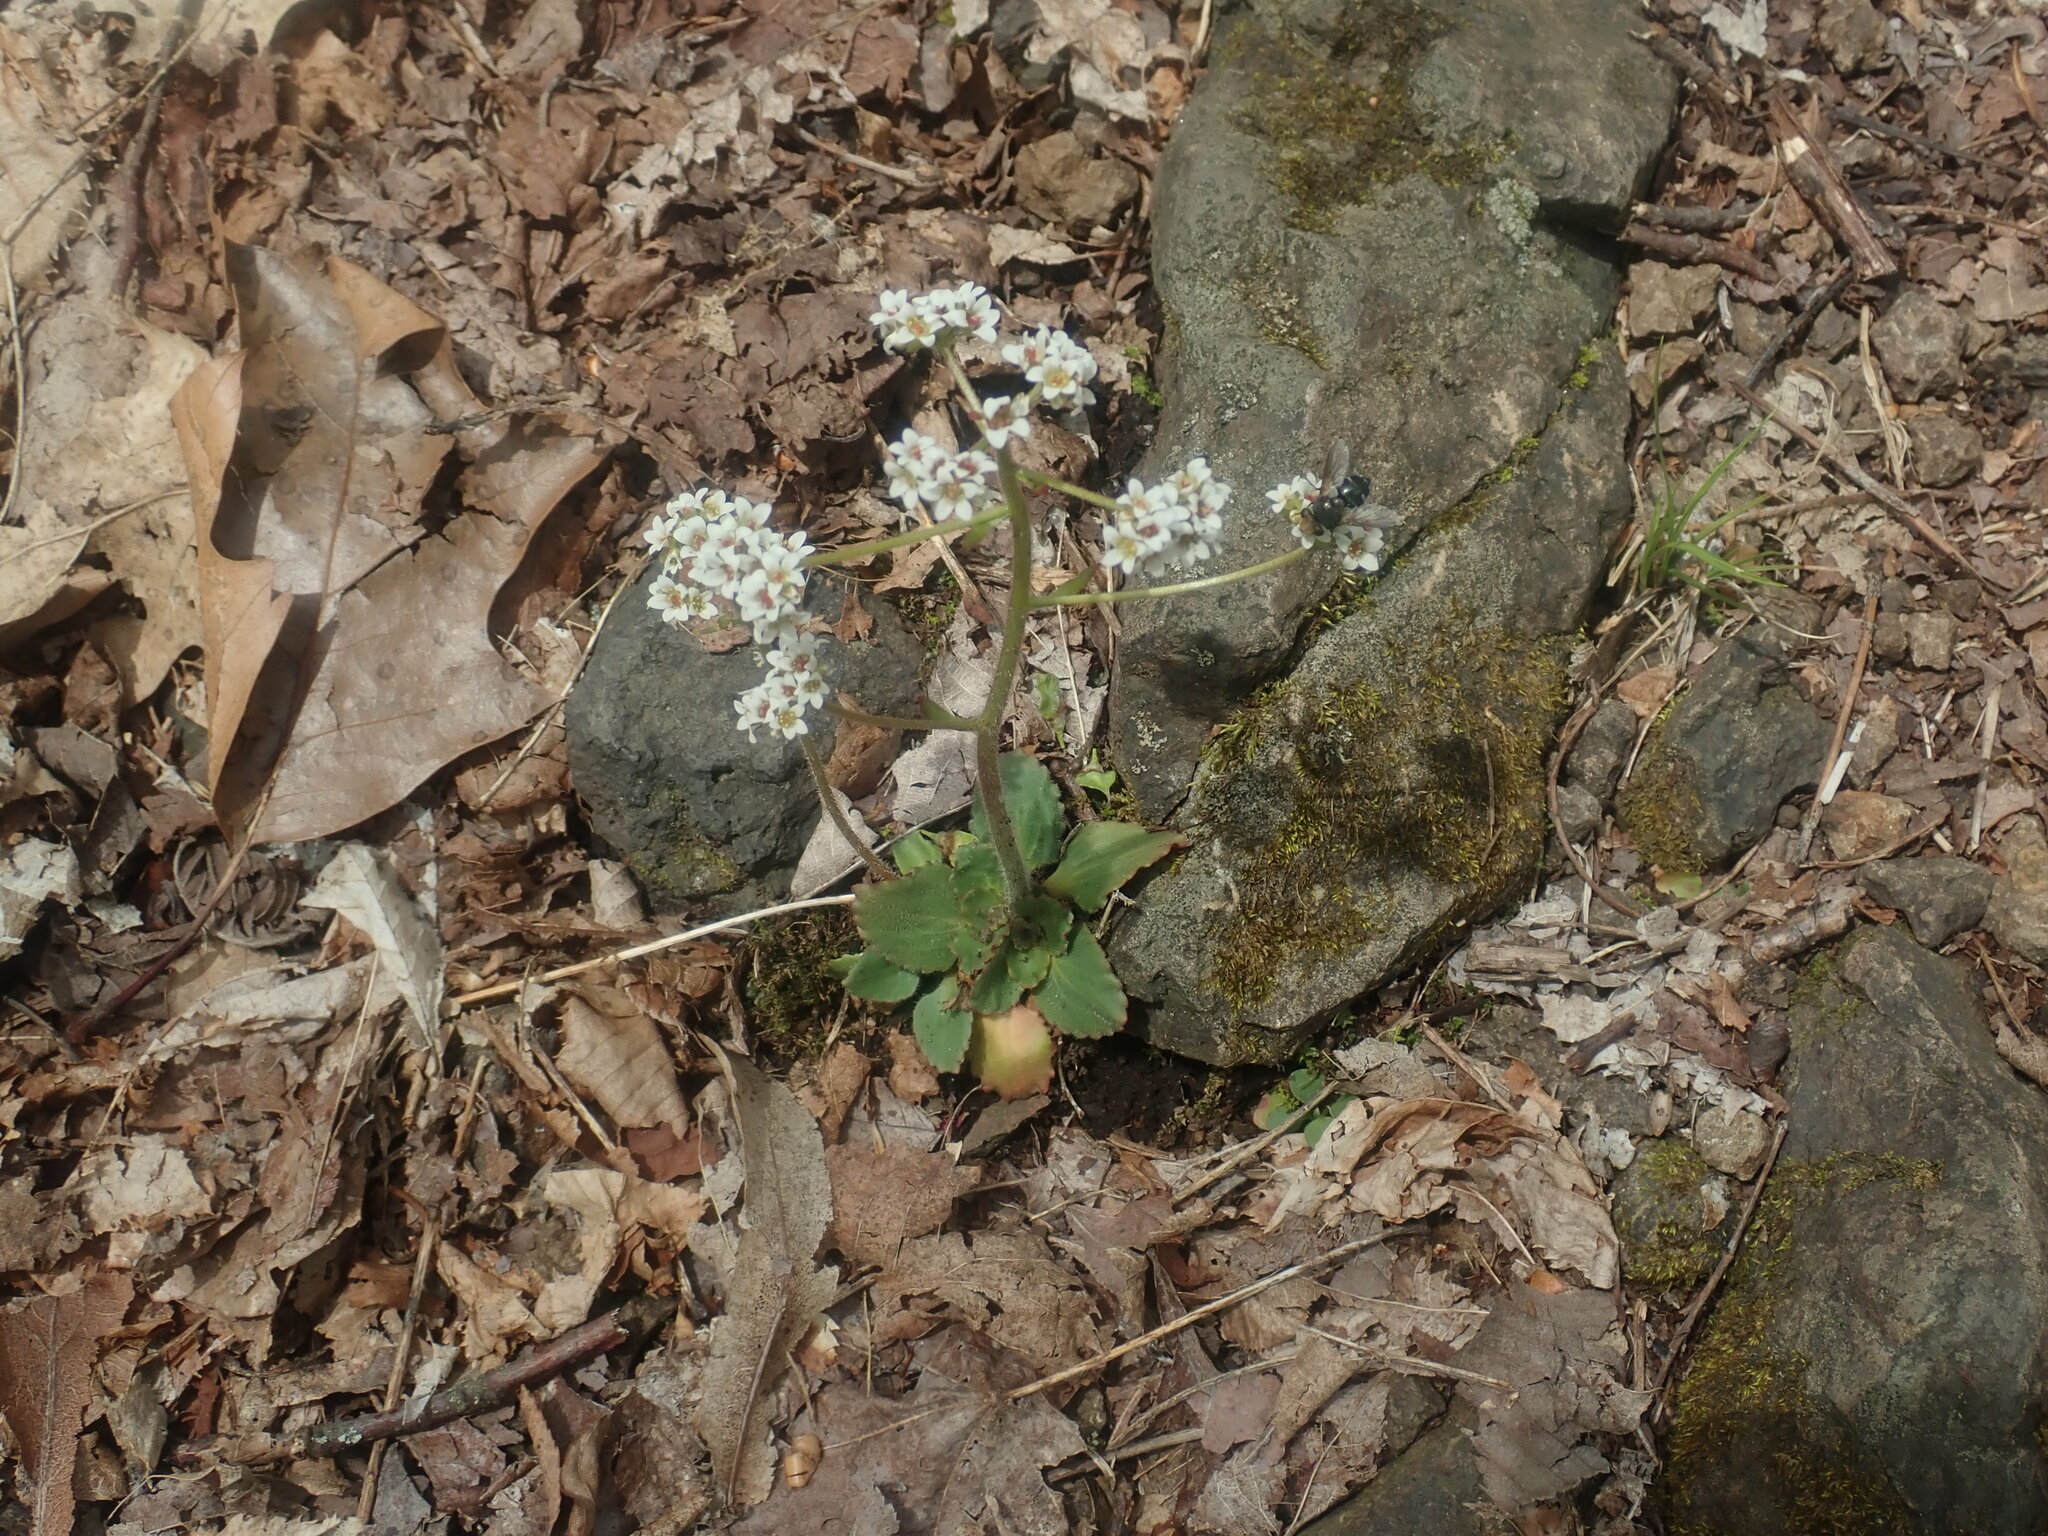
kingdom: Plantae
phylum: Tracheophyta
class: Magnoliopsida
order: Saxifragales
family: Saxifragaceae
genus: Micranthes
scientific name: Micranthes virginiensis
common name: Early saxifrage
